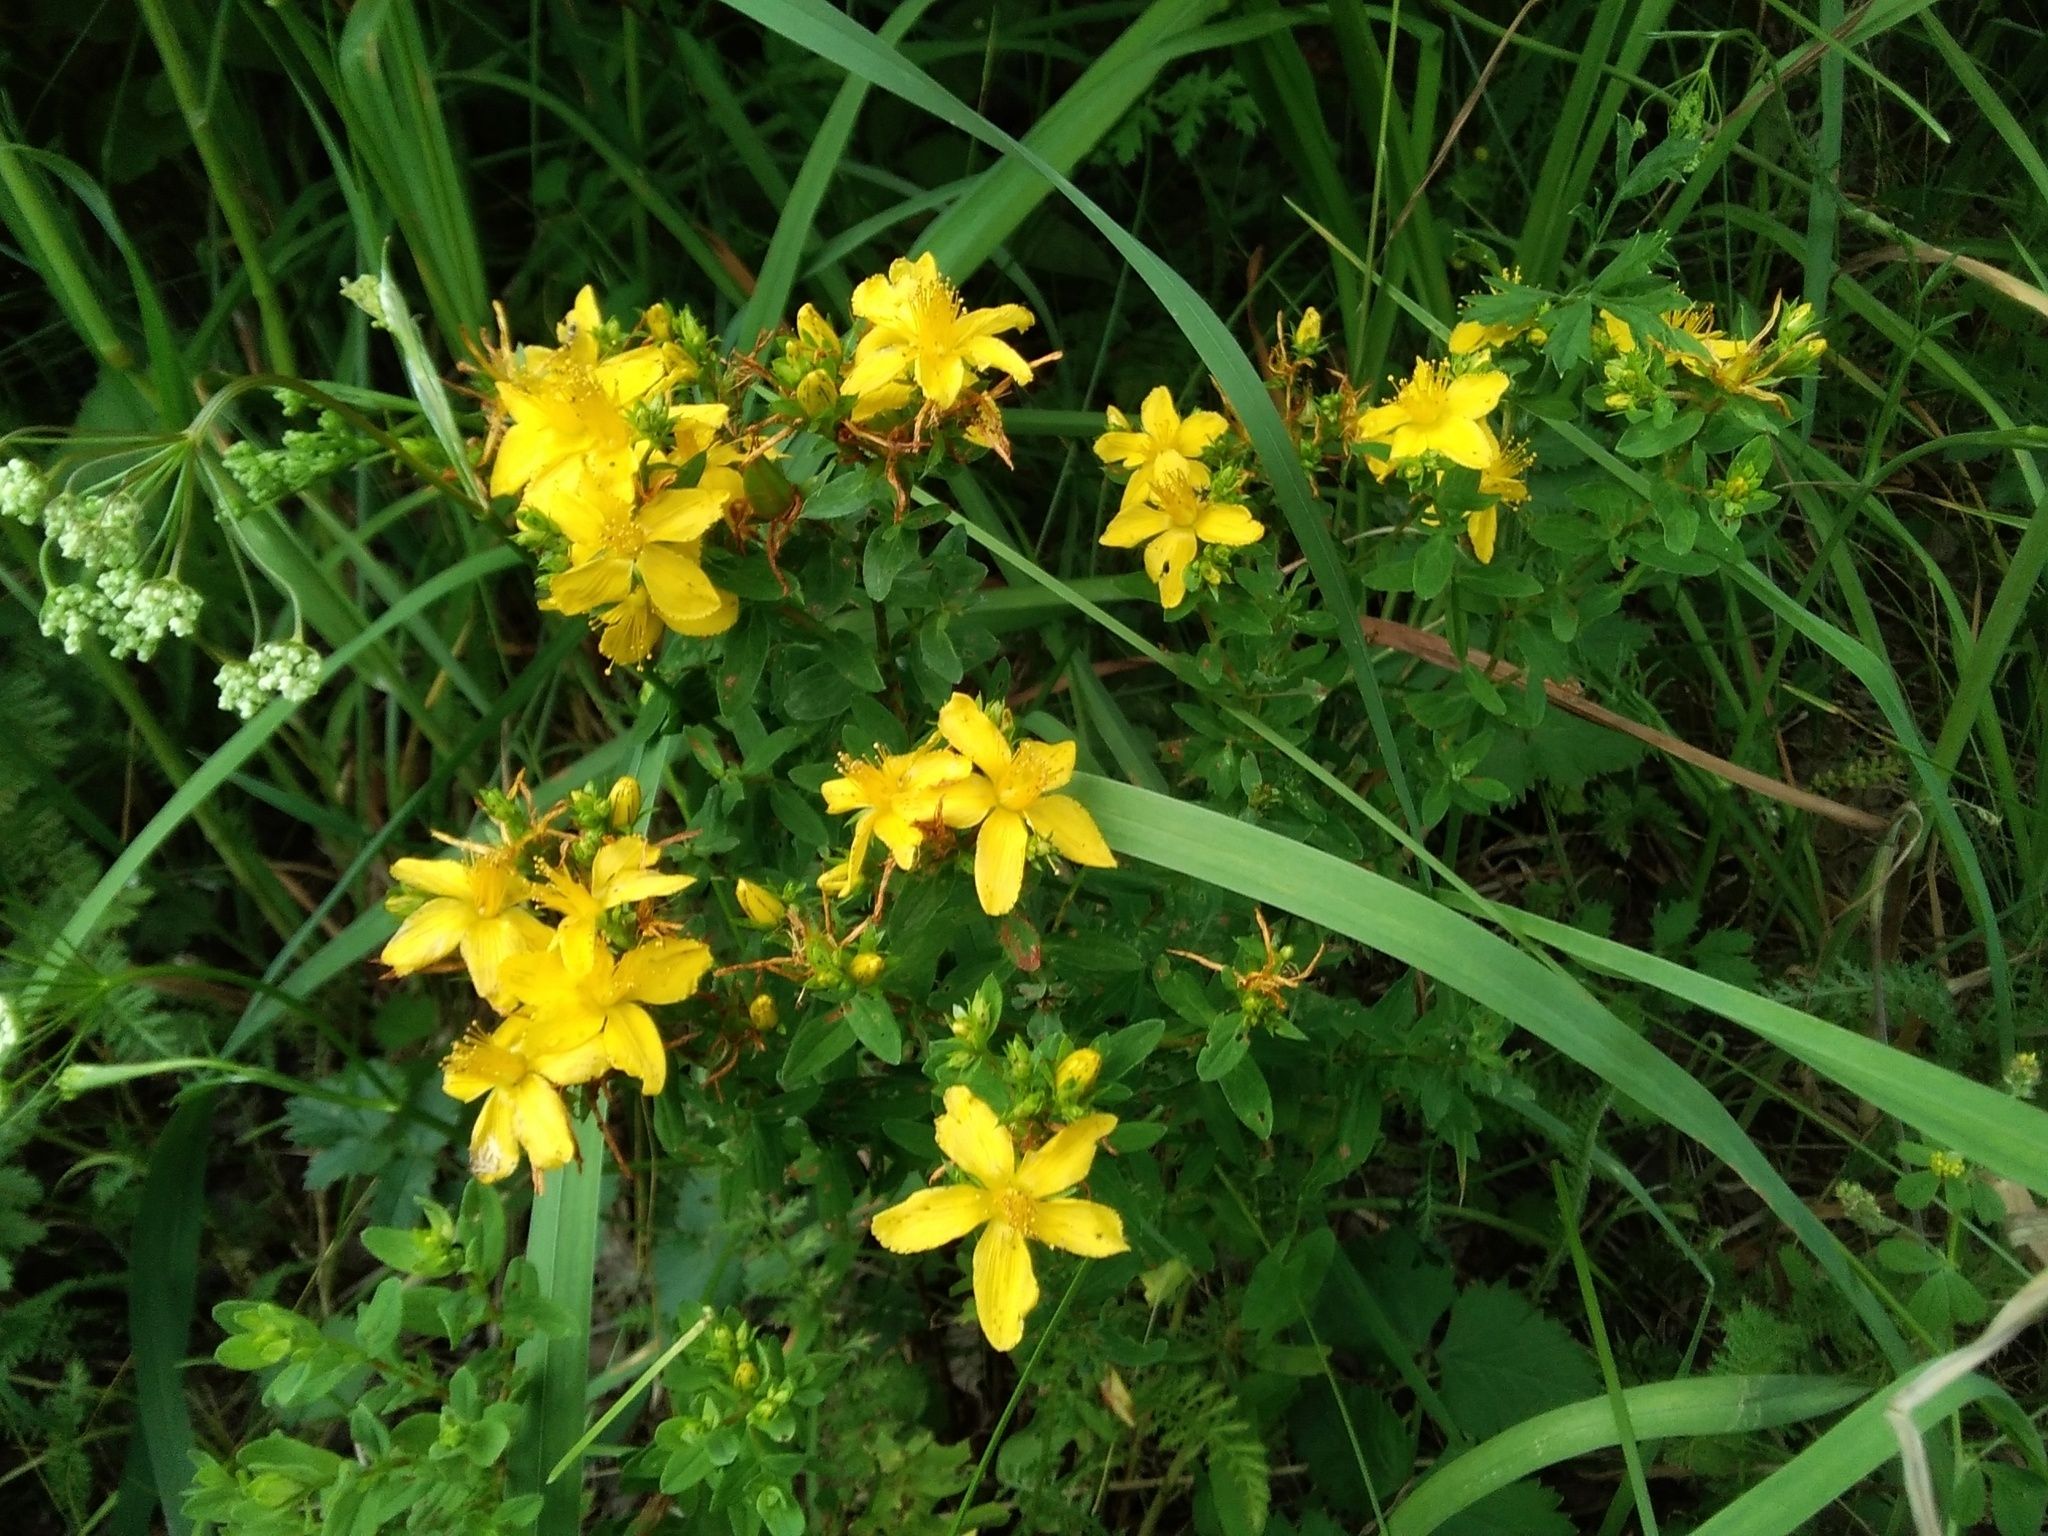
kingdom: Plantae
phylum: Tracheophyta
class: Magnoliopsida
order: Malpighiales
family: Hypericaceae
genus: Hypericum
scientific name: Hypericum perforatum
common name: Common st. johnswort
